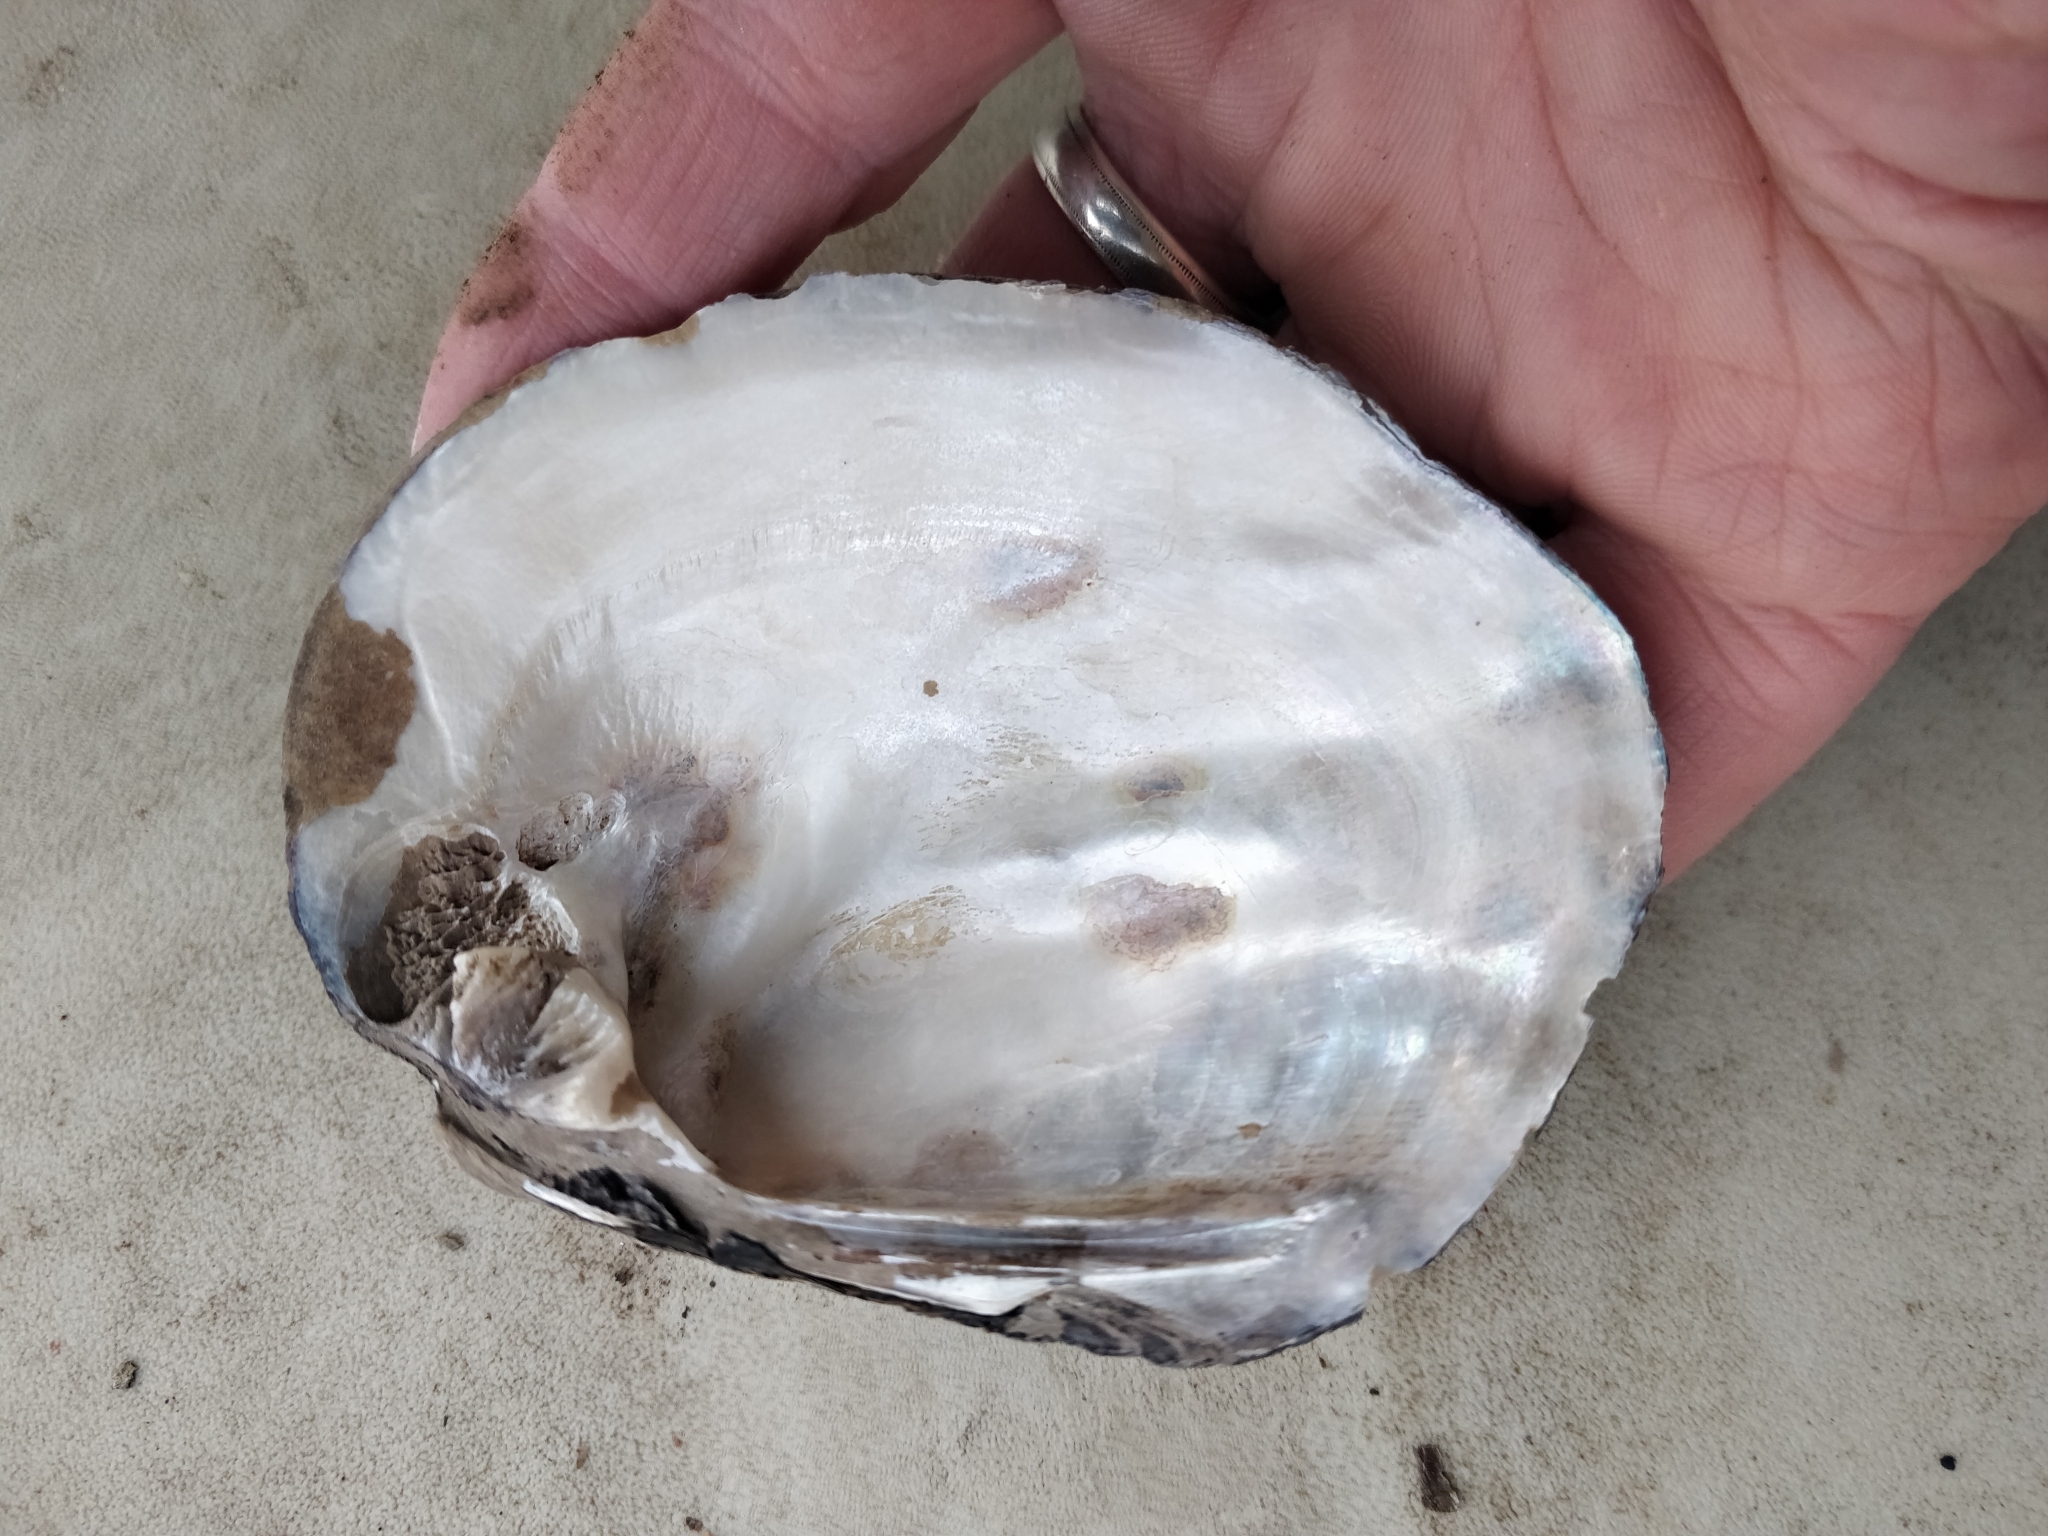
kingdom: Animalia
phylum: Mollusca
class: Bivalvia
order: Unionida
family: Unionidae
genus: Amblema
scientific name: Amblema plicata
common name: Threeridge
